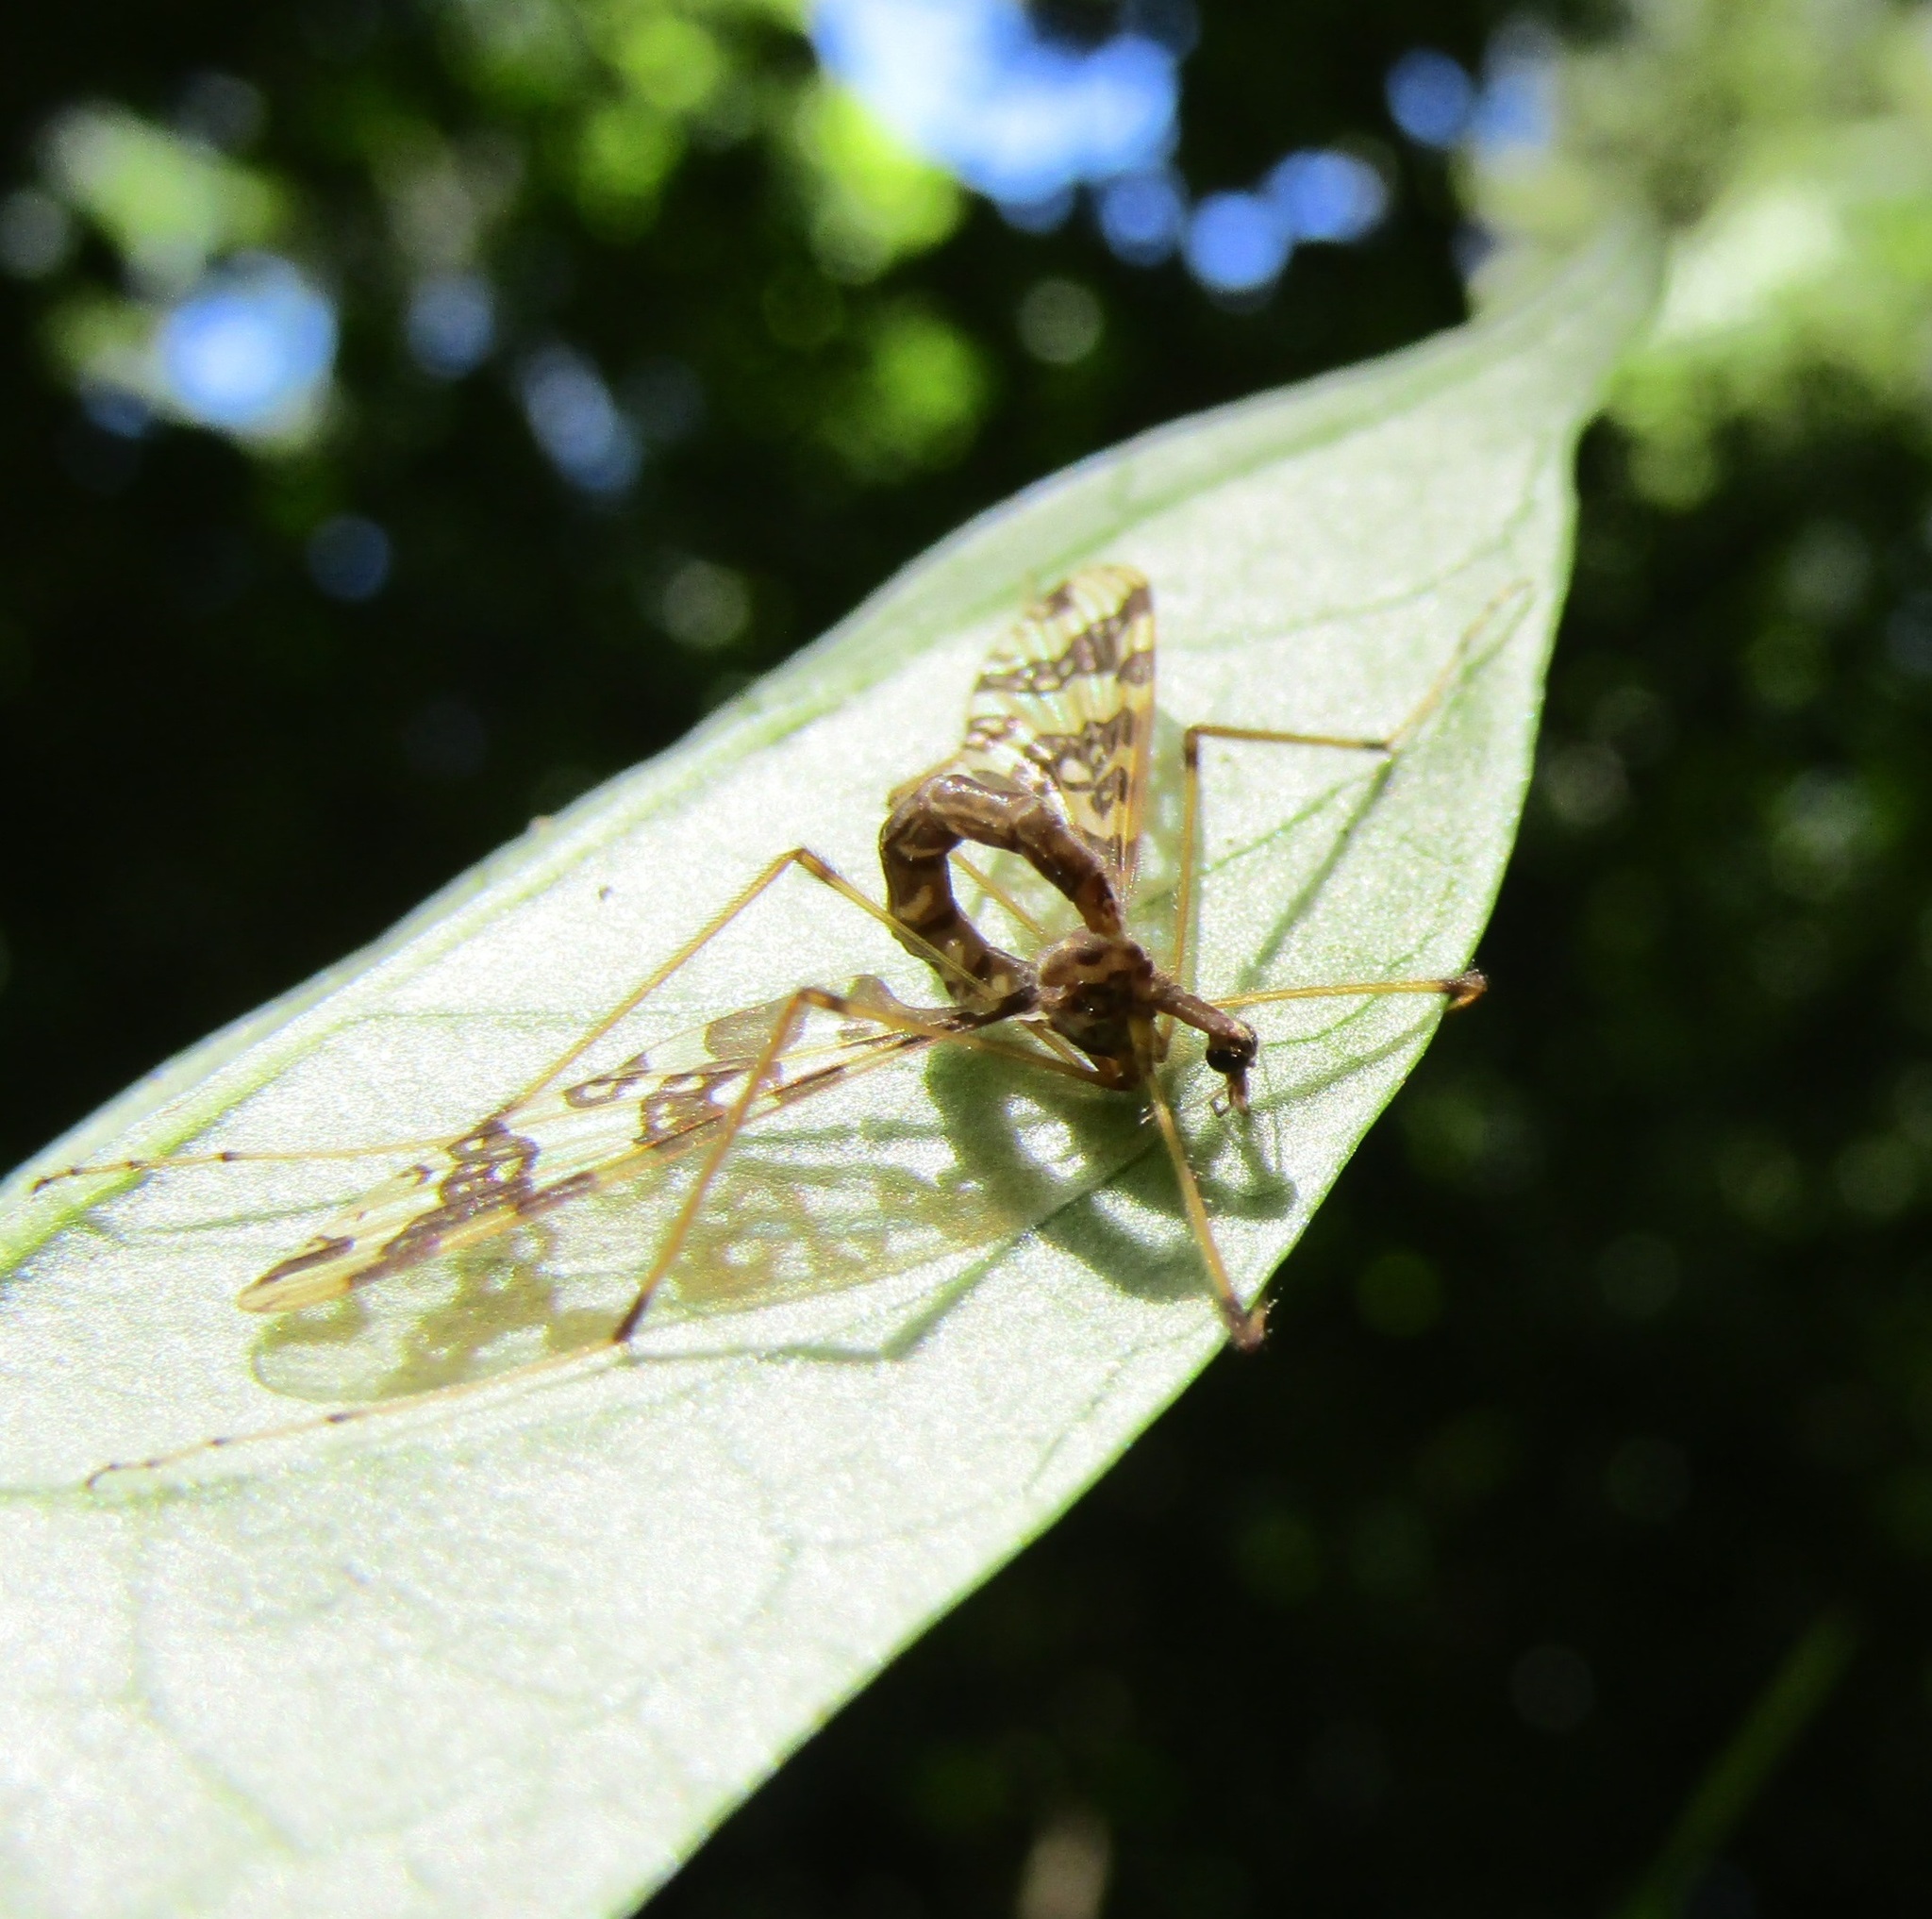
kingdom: Animalia
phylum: Arthropoda
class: Insecta
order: Diptera
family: Tanyderidae
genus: Tanyderus
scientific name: Tanyderus annuliferus
